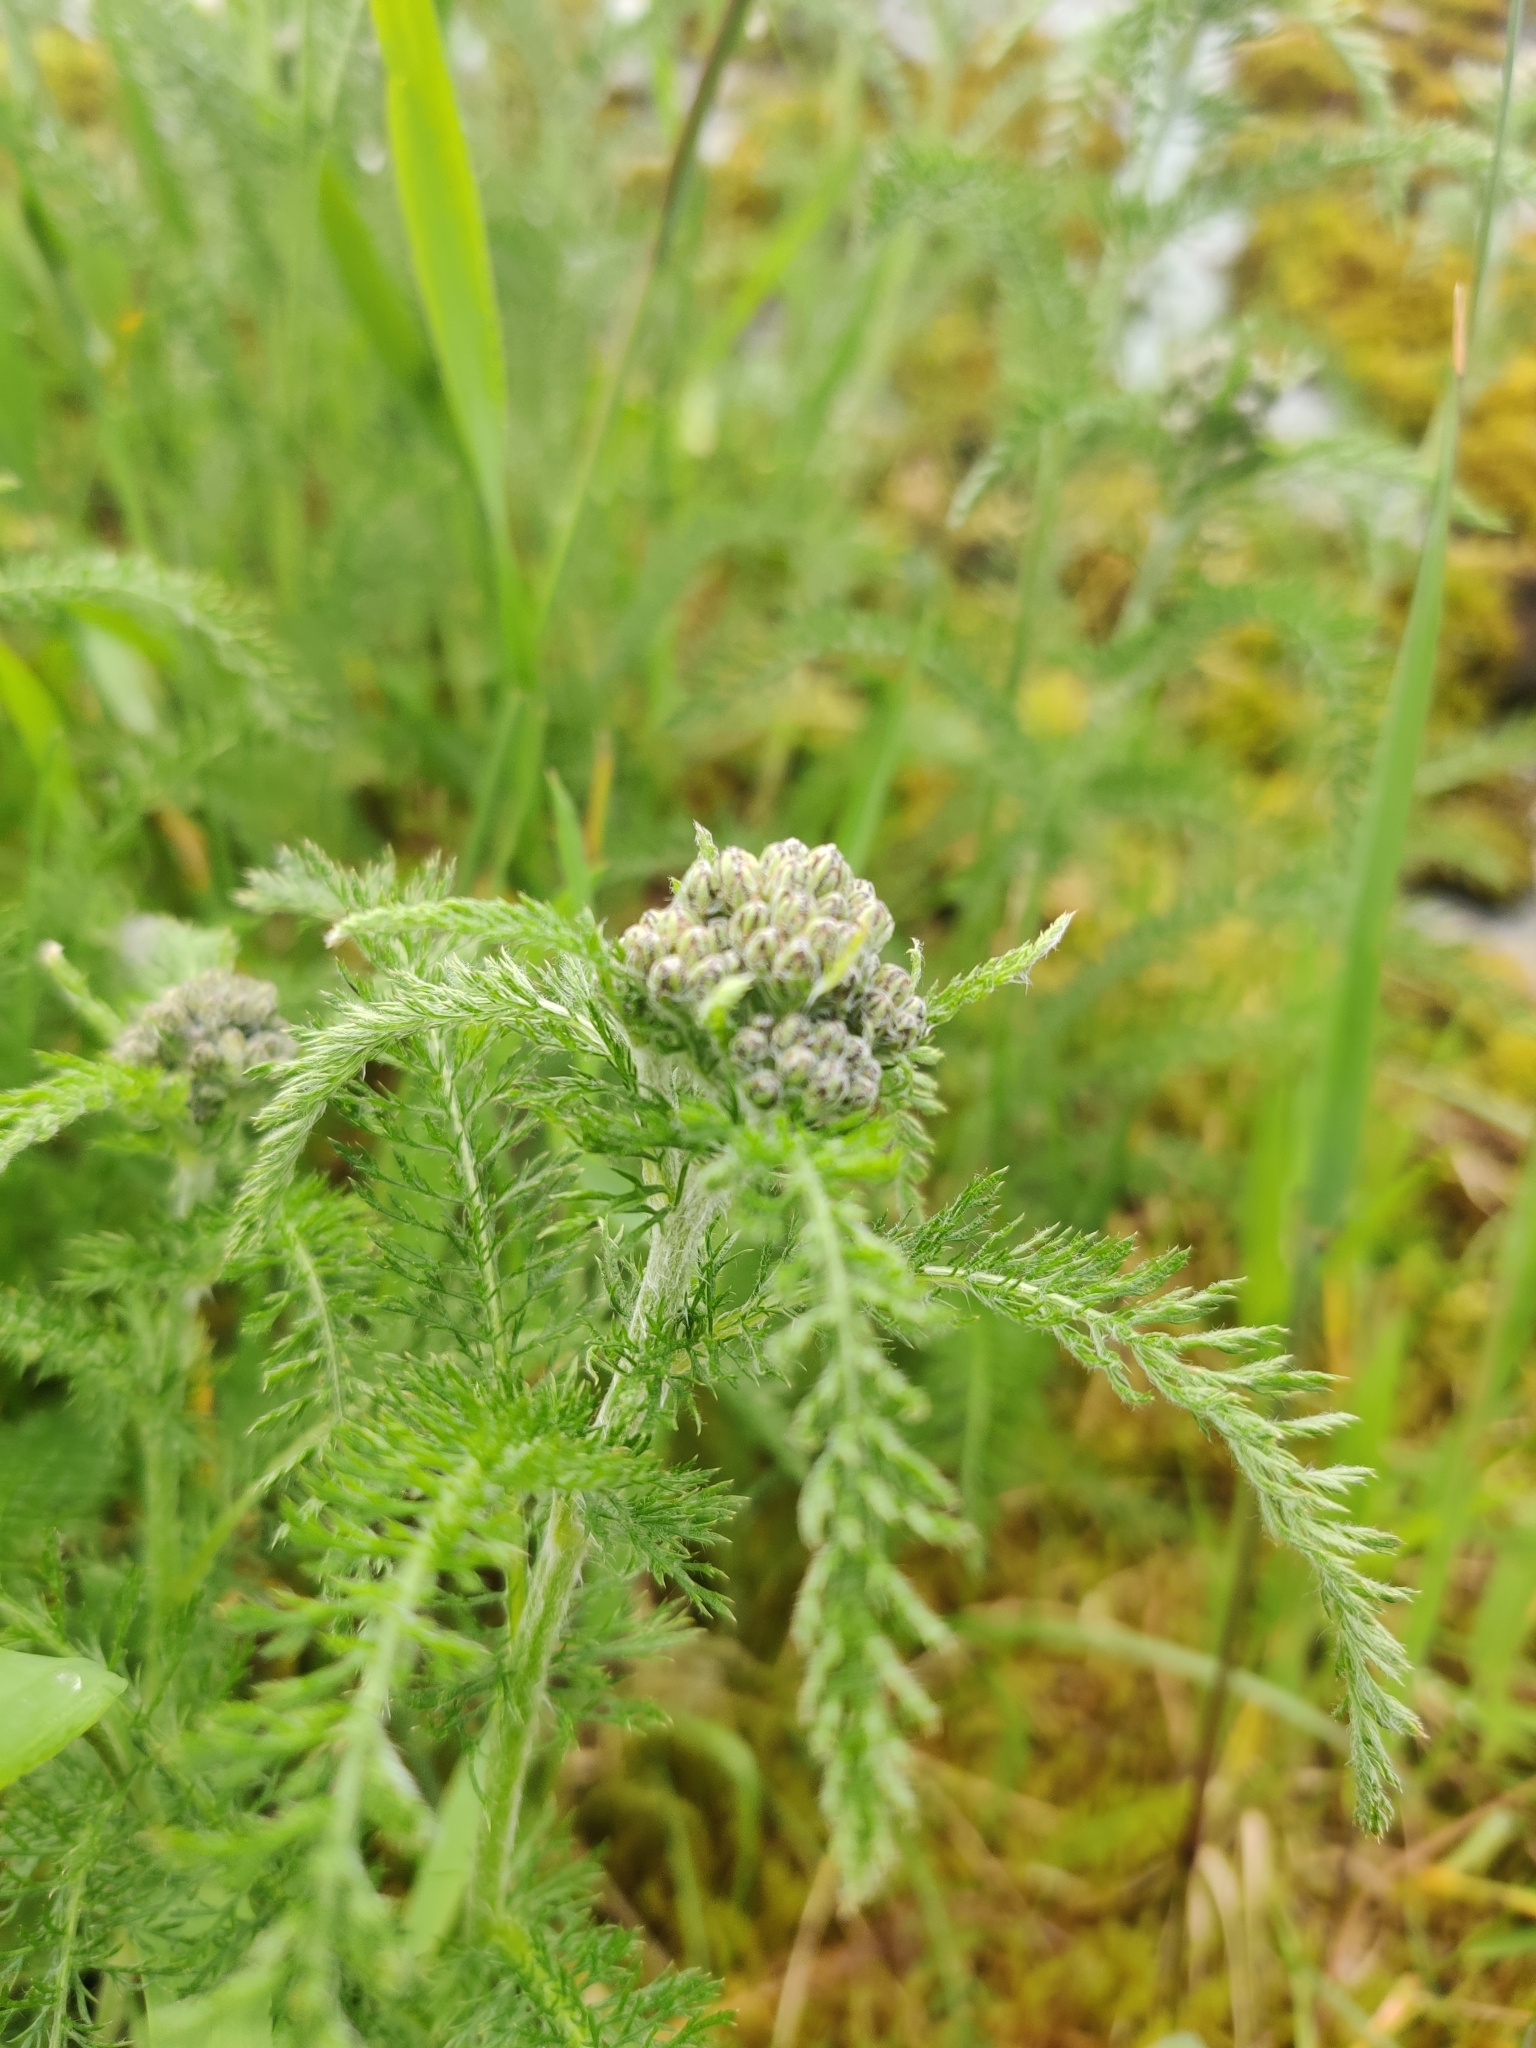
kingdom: Plantae
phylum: Tracheophyta
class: Magnoliopsida
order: Asterales
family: Asteraceae
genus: Achillea
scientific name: Achillea millefolium
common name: Yarrow
